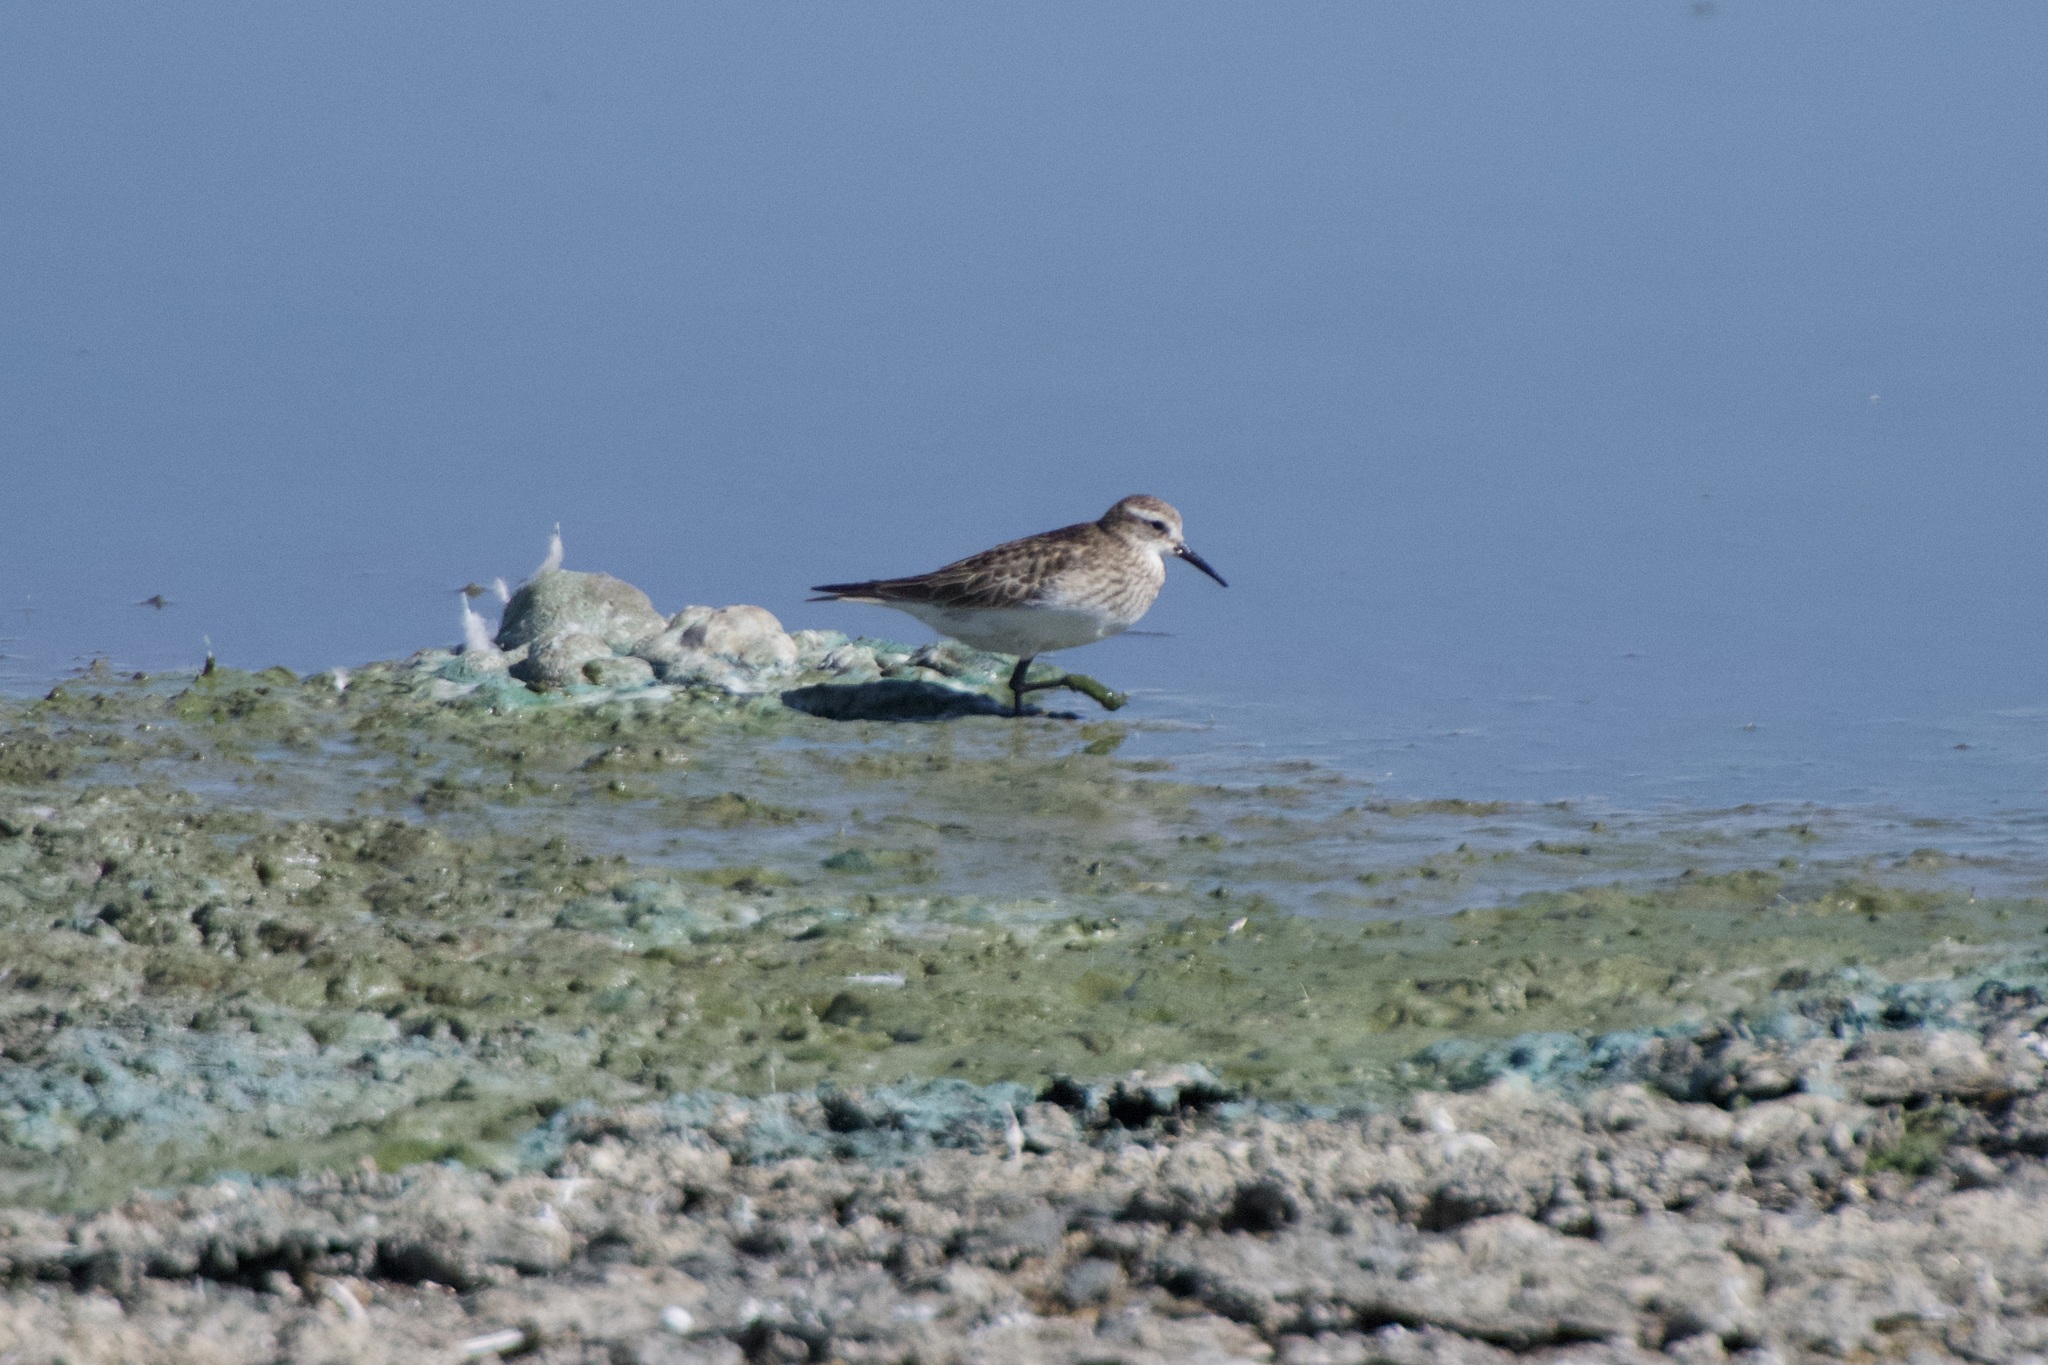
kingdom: Animalia
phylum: Chordata
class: Aves
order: Charadriiformes
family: Scolopacidae
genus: Calidris
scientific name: Calidris bairdii
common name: Baird's sandpiper
